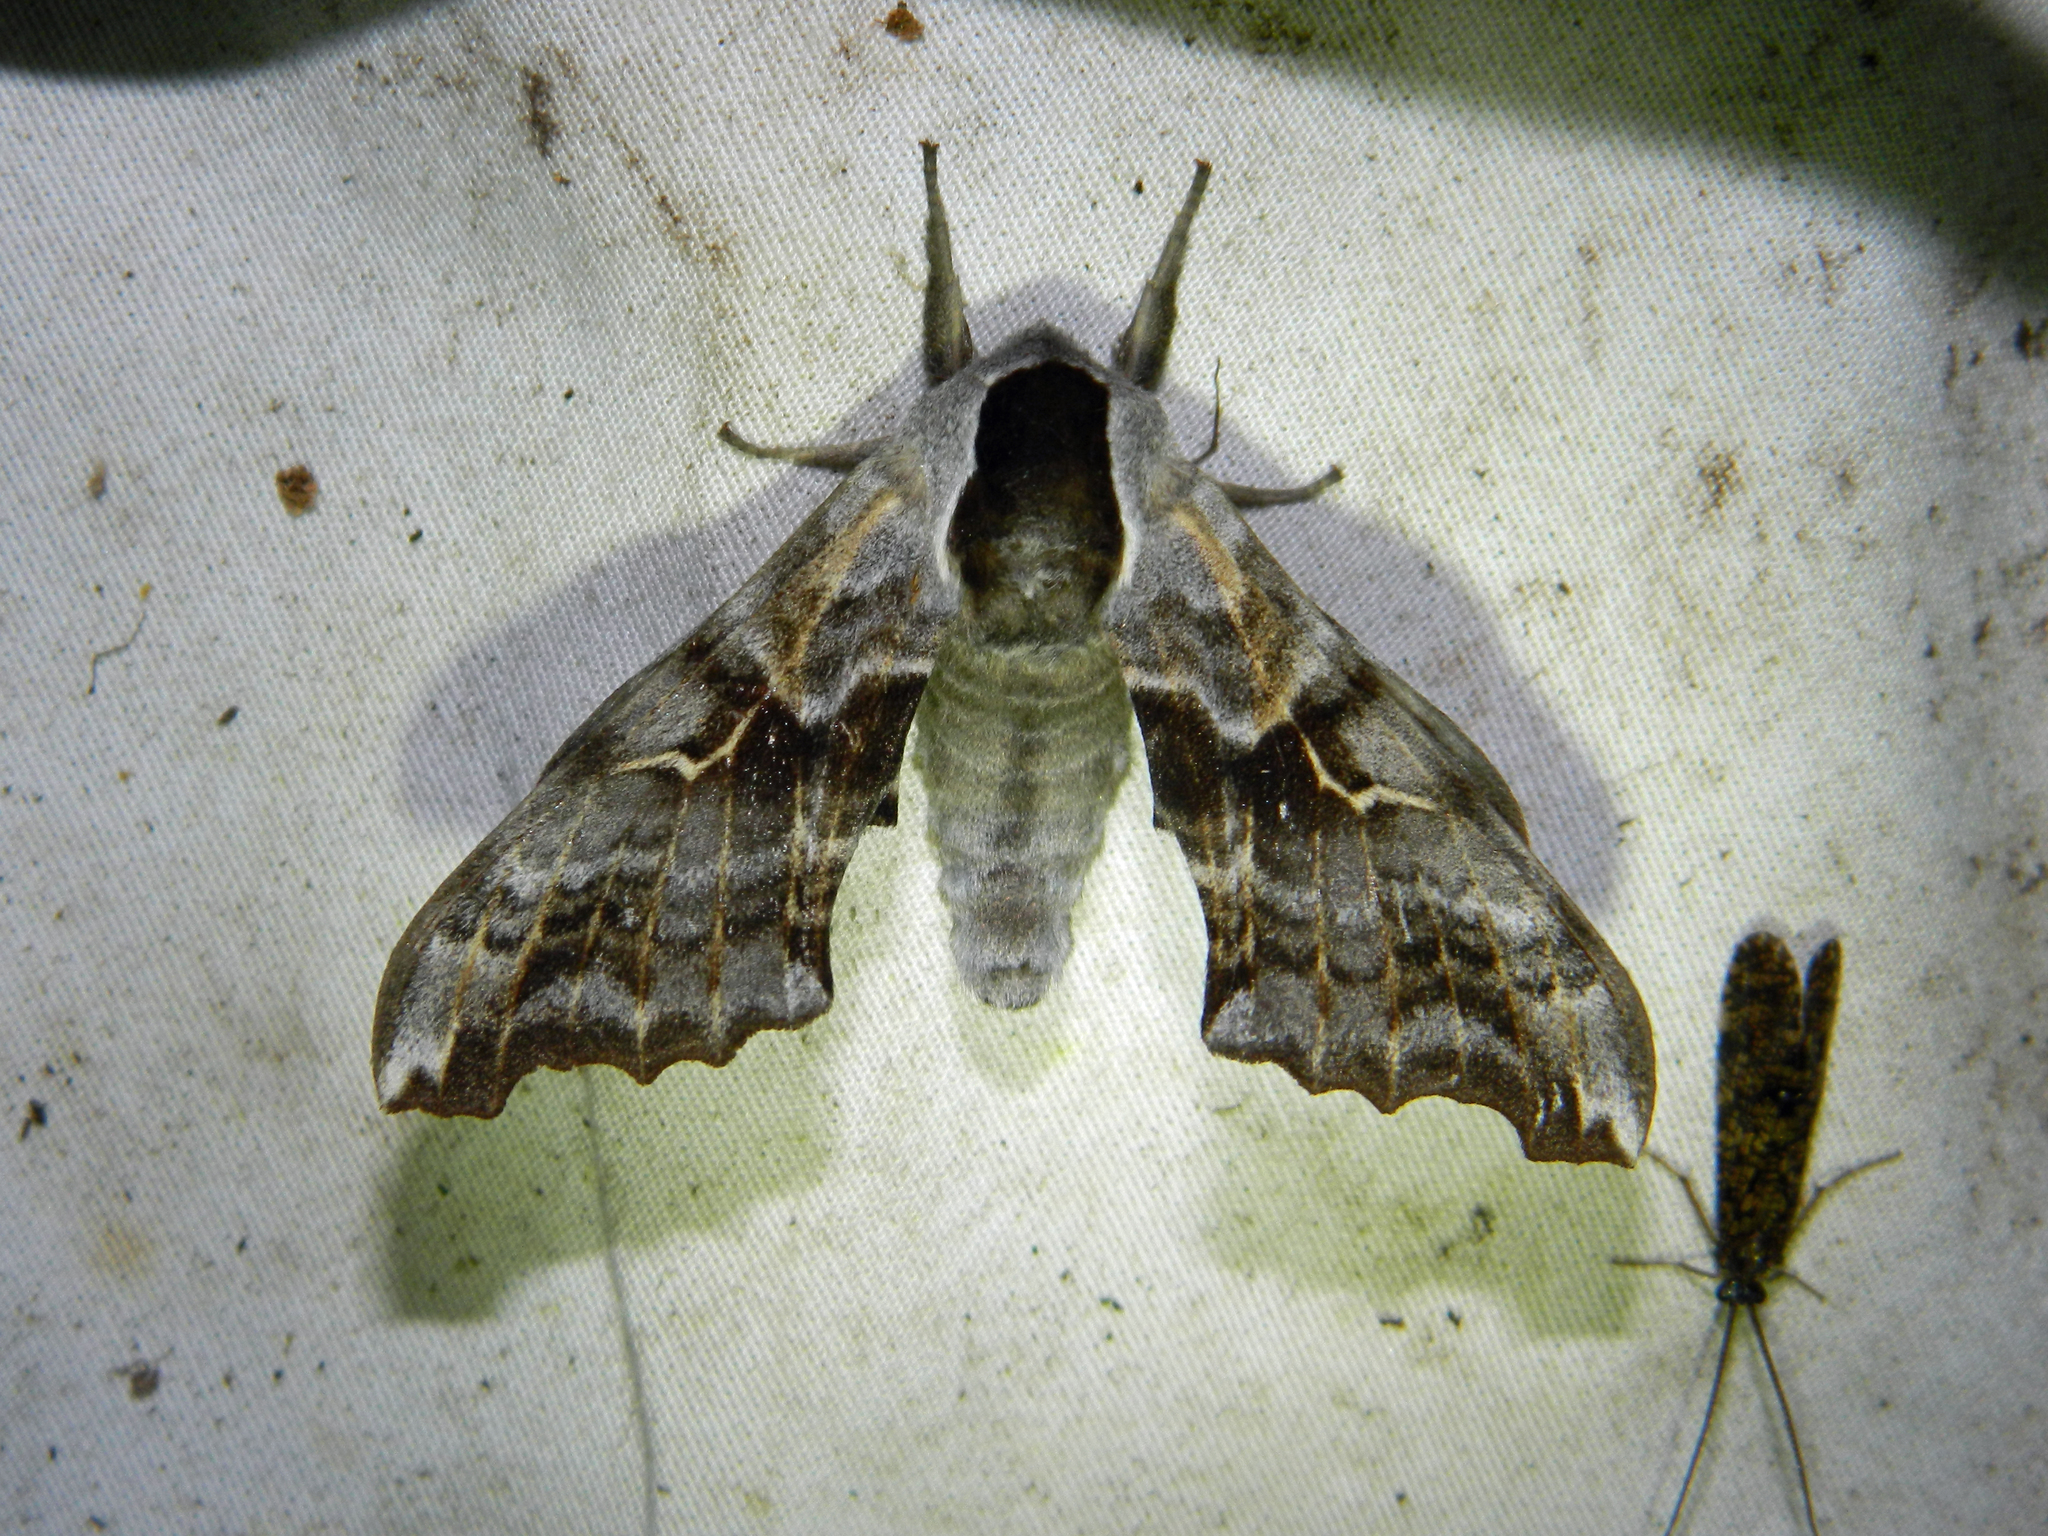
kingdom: Animalia
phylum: Arthropoda
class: Insecta
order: Lepidoptera
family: Sphingidae
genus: Smerinthus
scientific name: Smerinthus cerisyi
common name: Cerisy's sphinx moth
